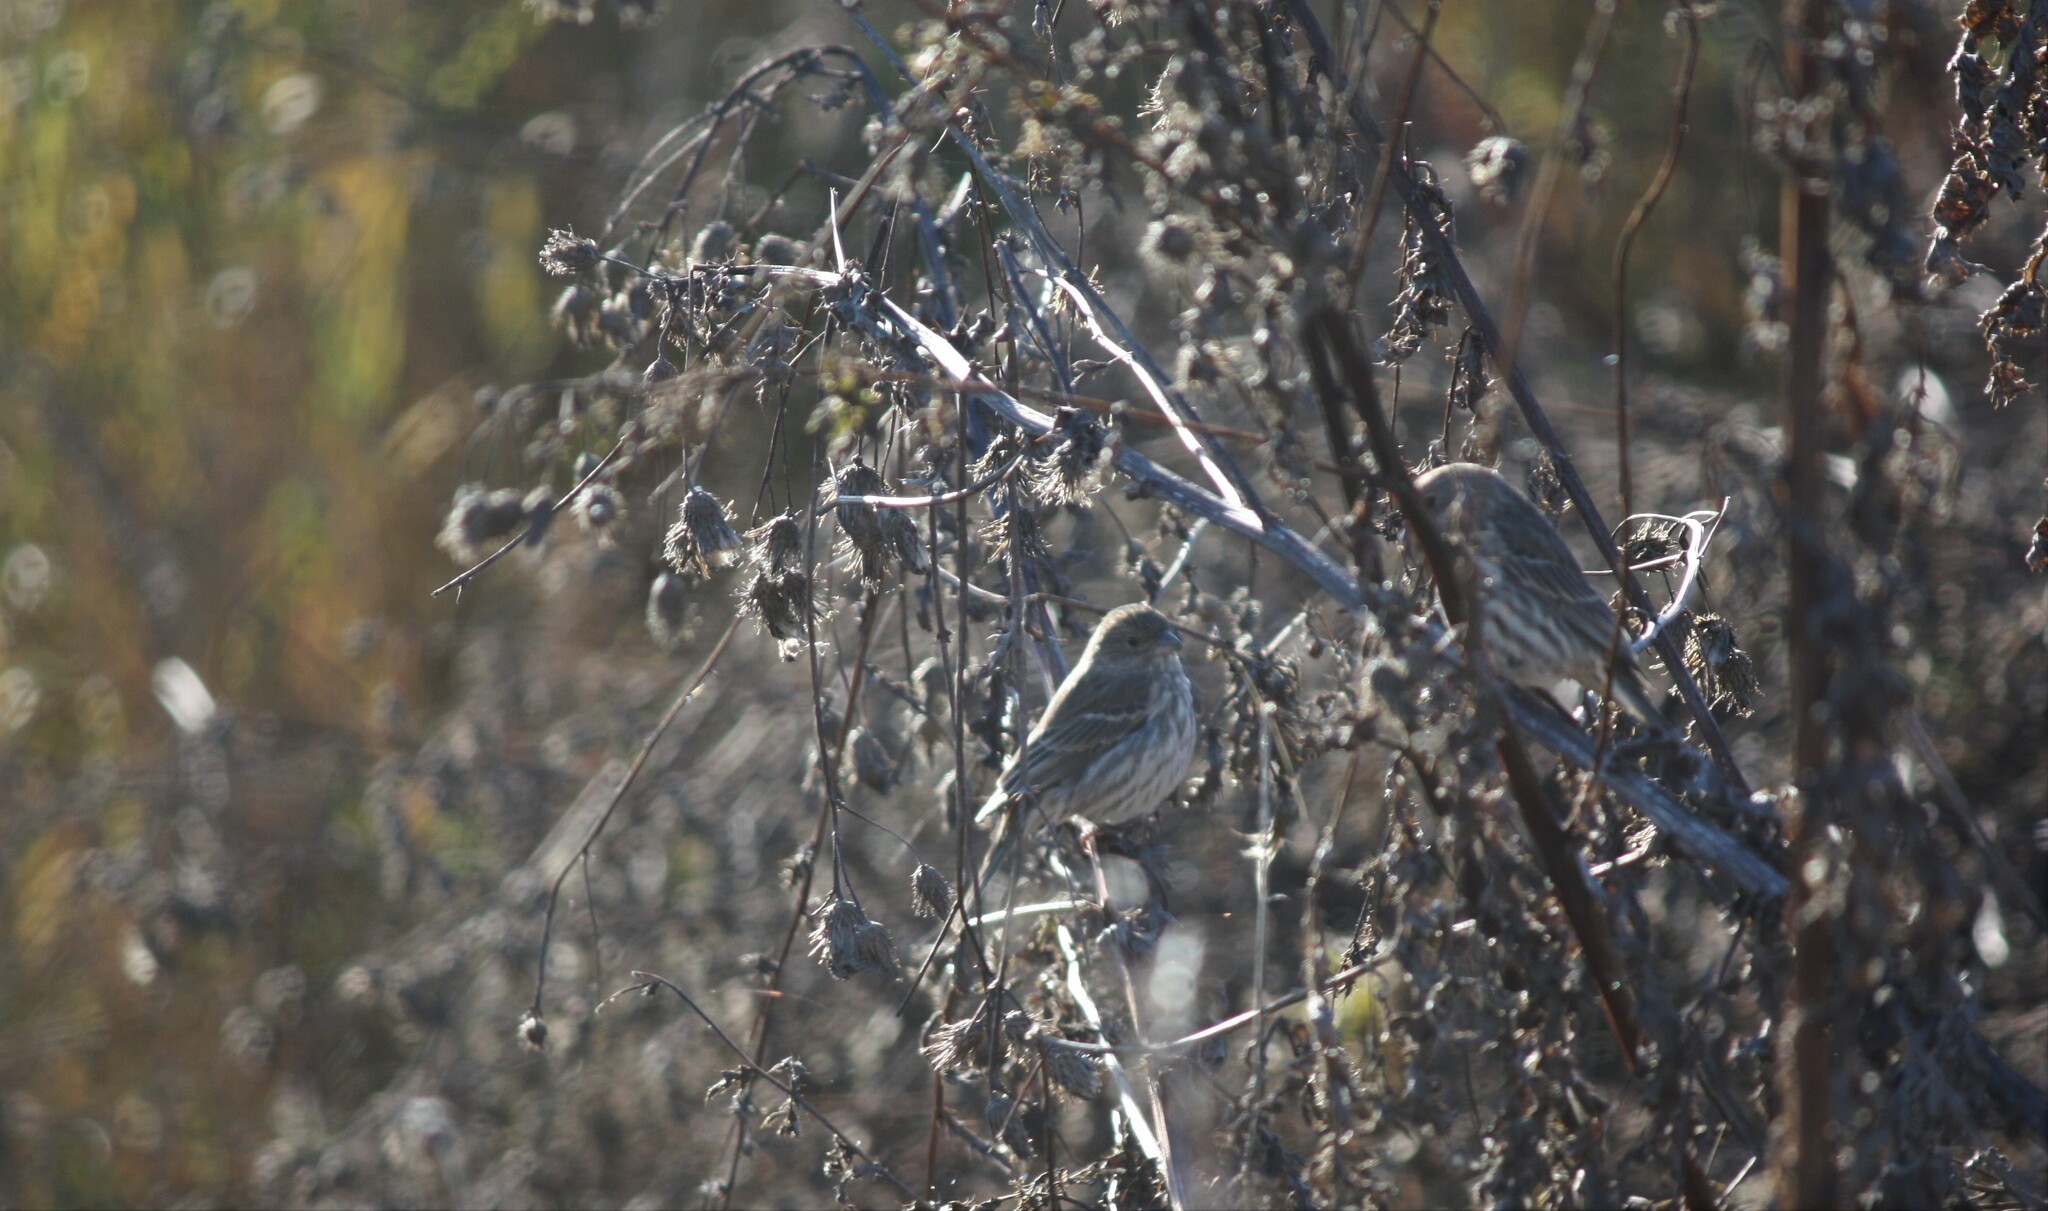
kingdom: Animalia
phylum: Chordata
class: Aves
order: Passeriformes
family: Fringillidae
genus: Haemorhous
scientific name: Haemorhous mexicanus
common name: House finch
